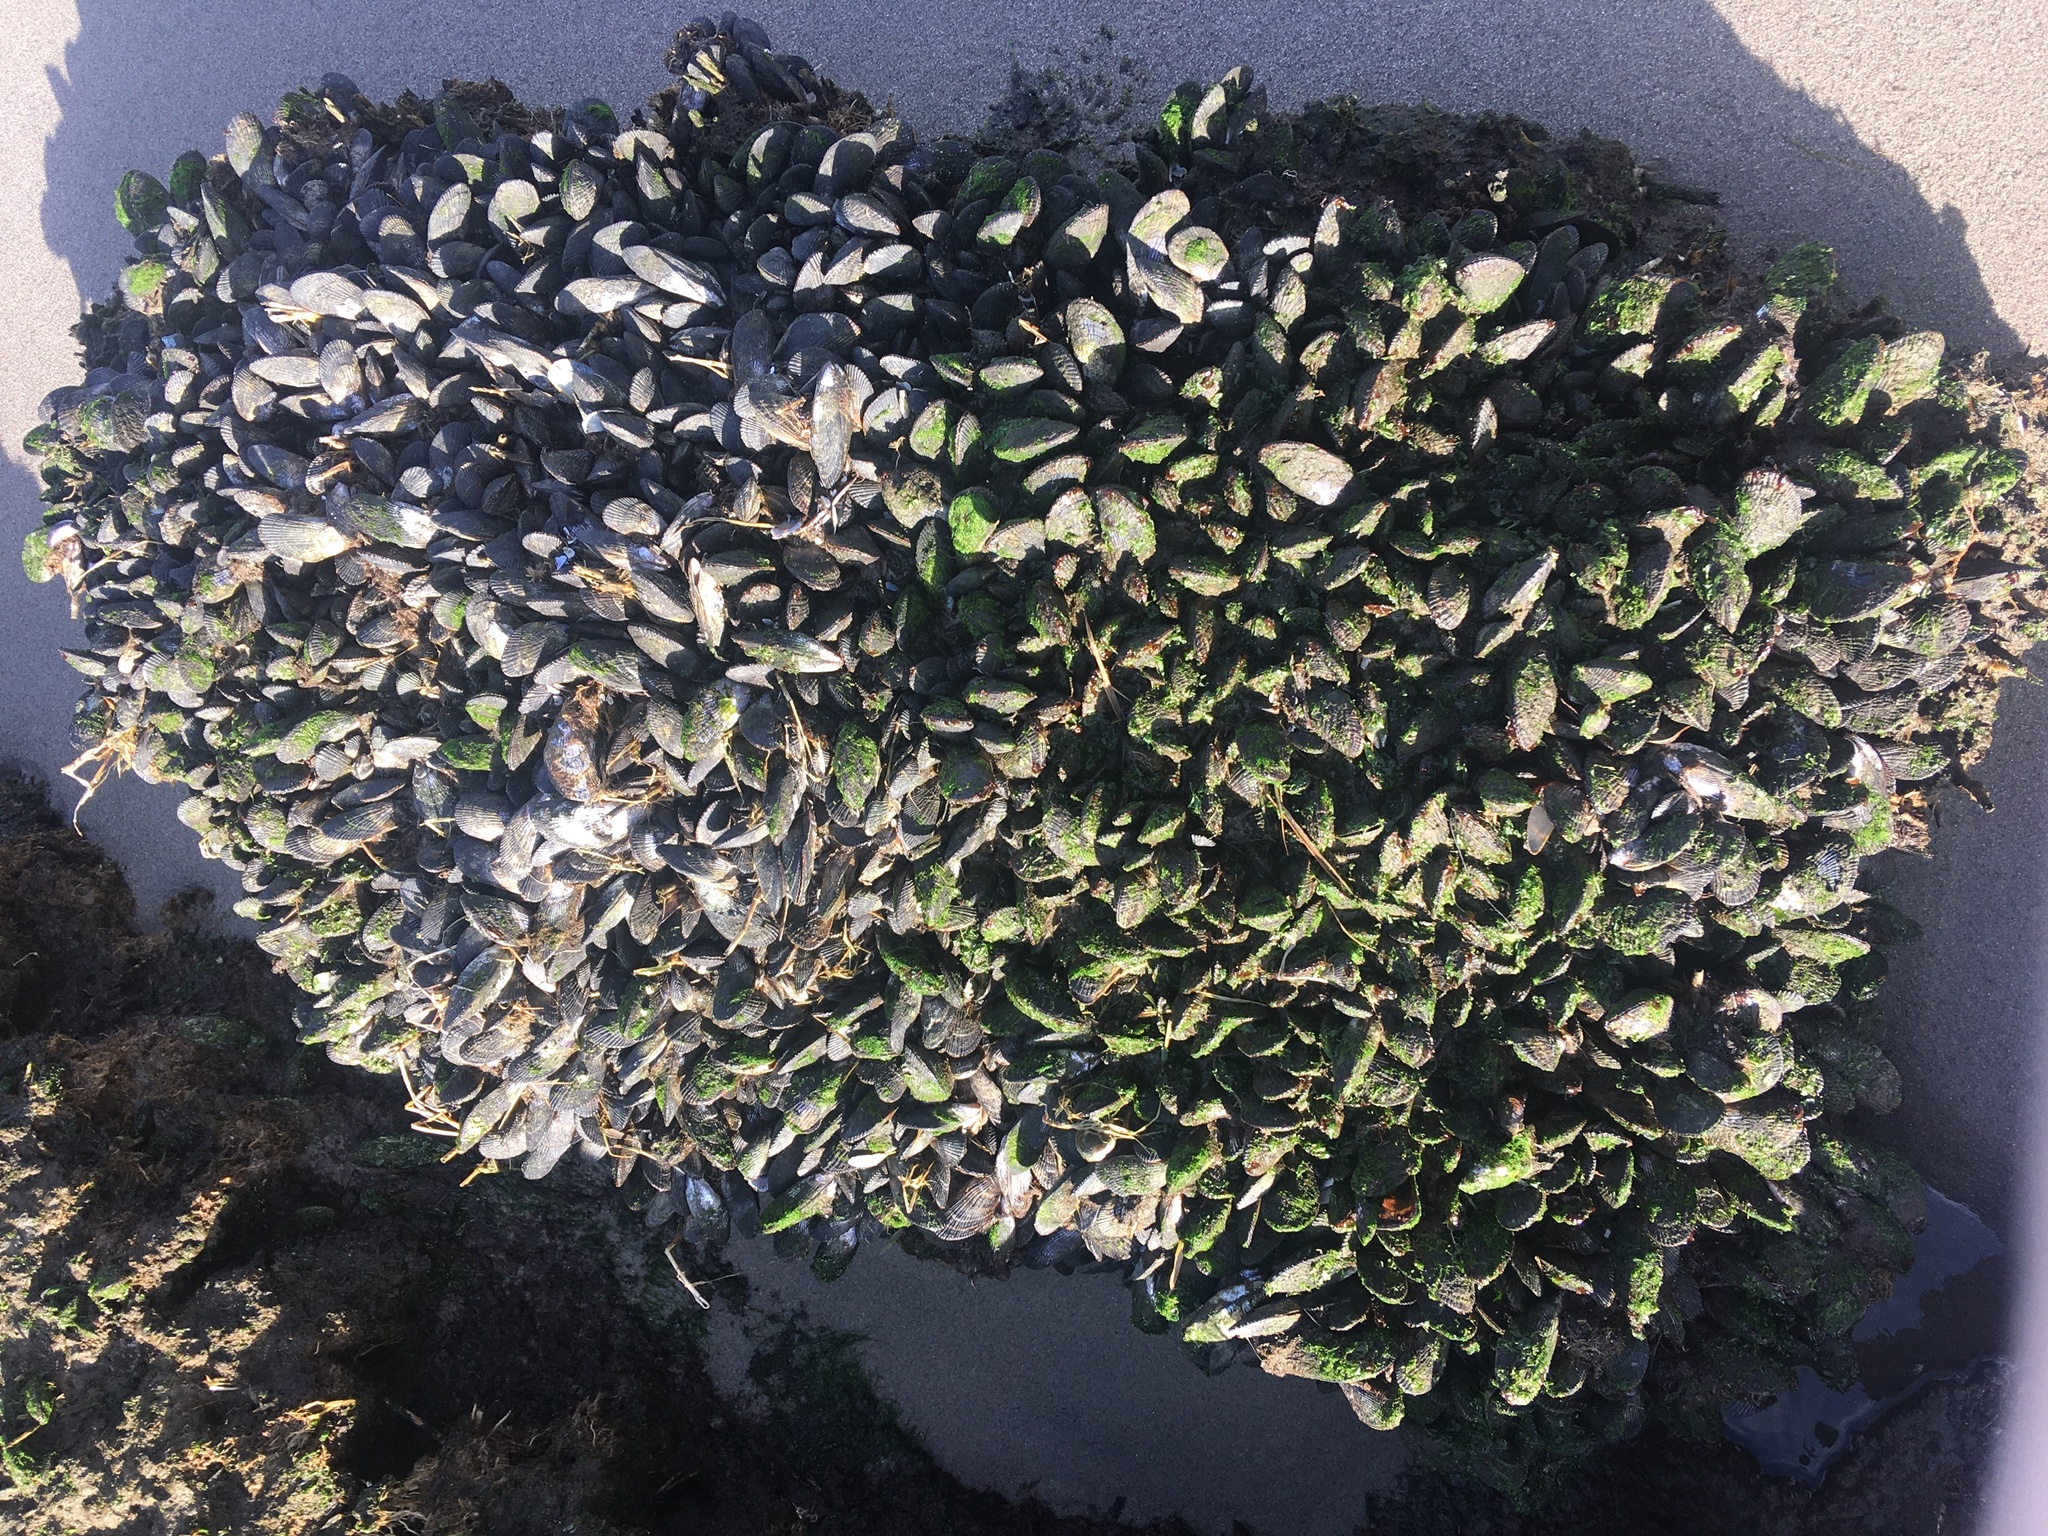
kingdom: Animalia
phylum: Mollusca
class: Bivalvia
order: Mytilida
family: Mytilidae
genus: Geukensia
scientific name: Geukensia demissa
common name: Ribbed mussel
